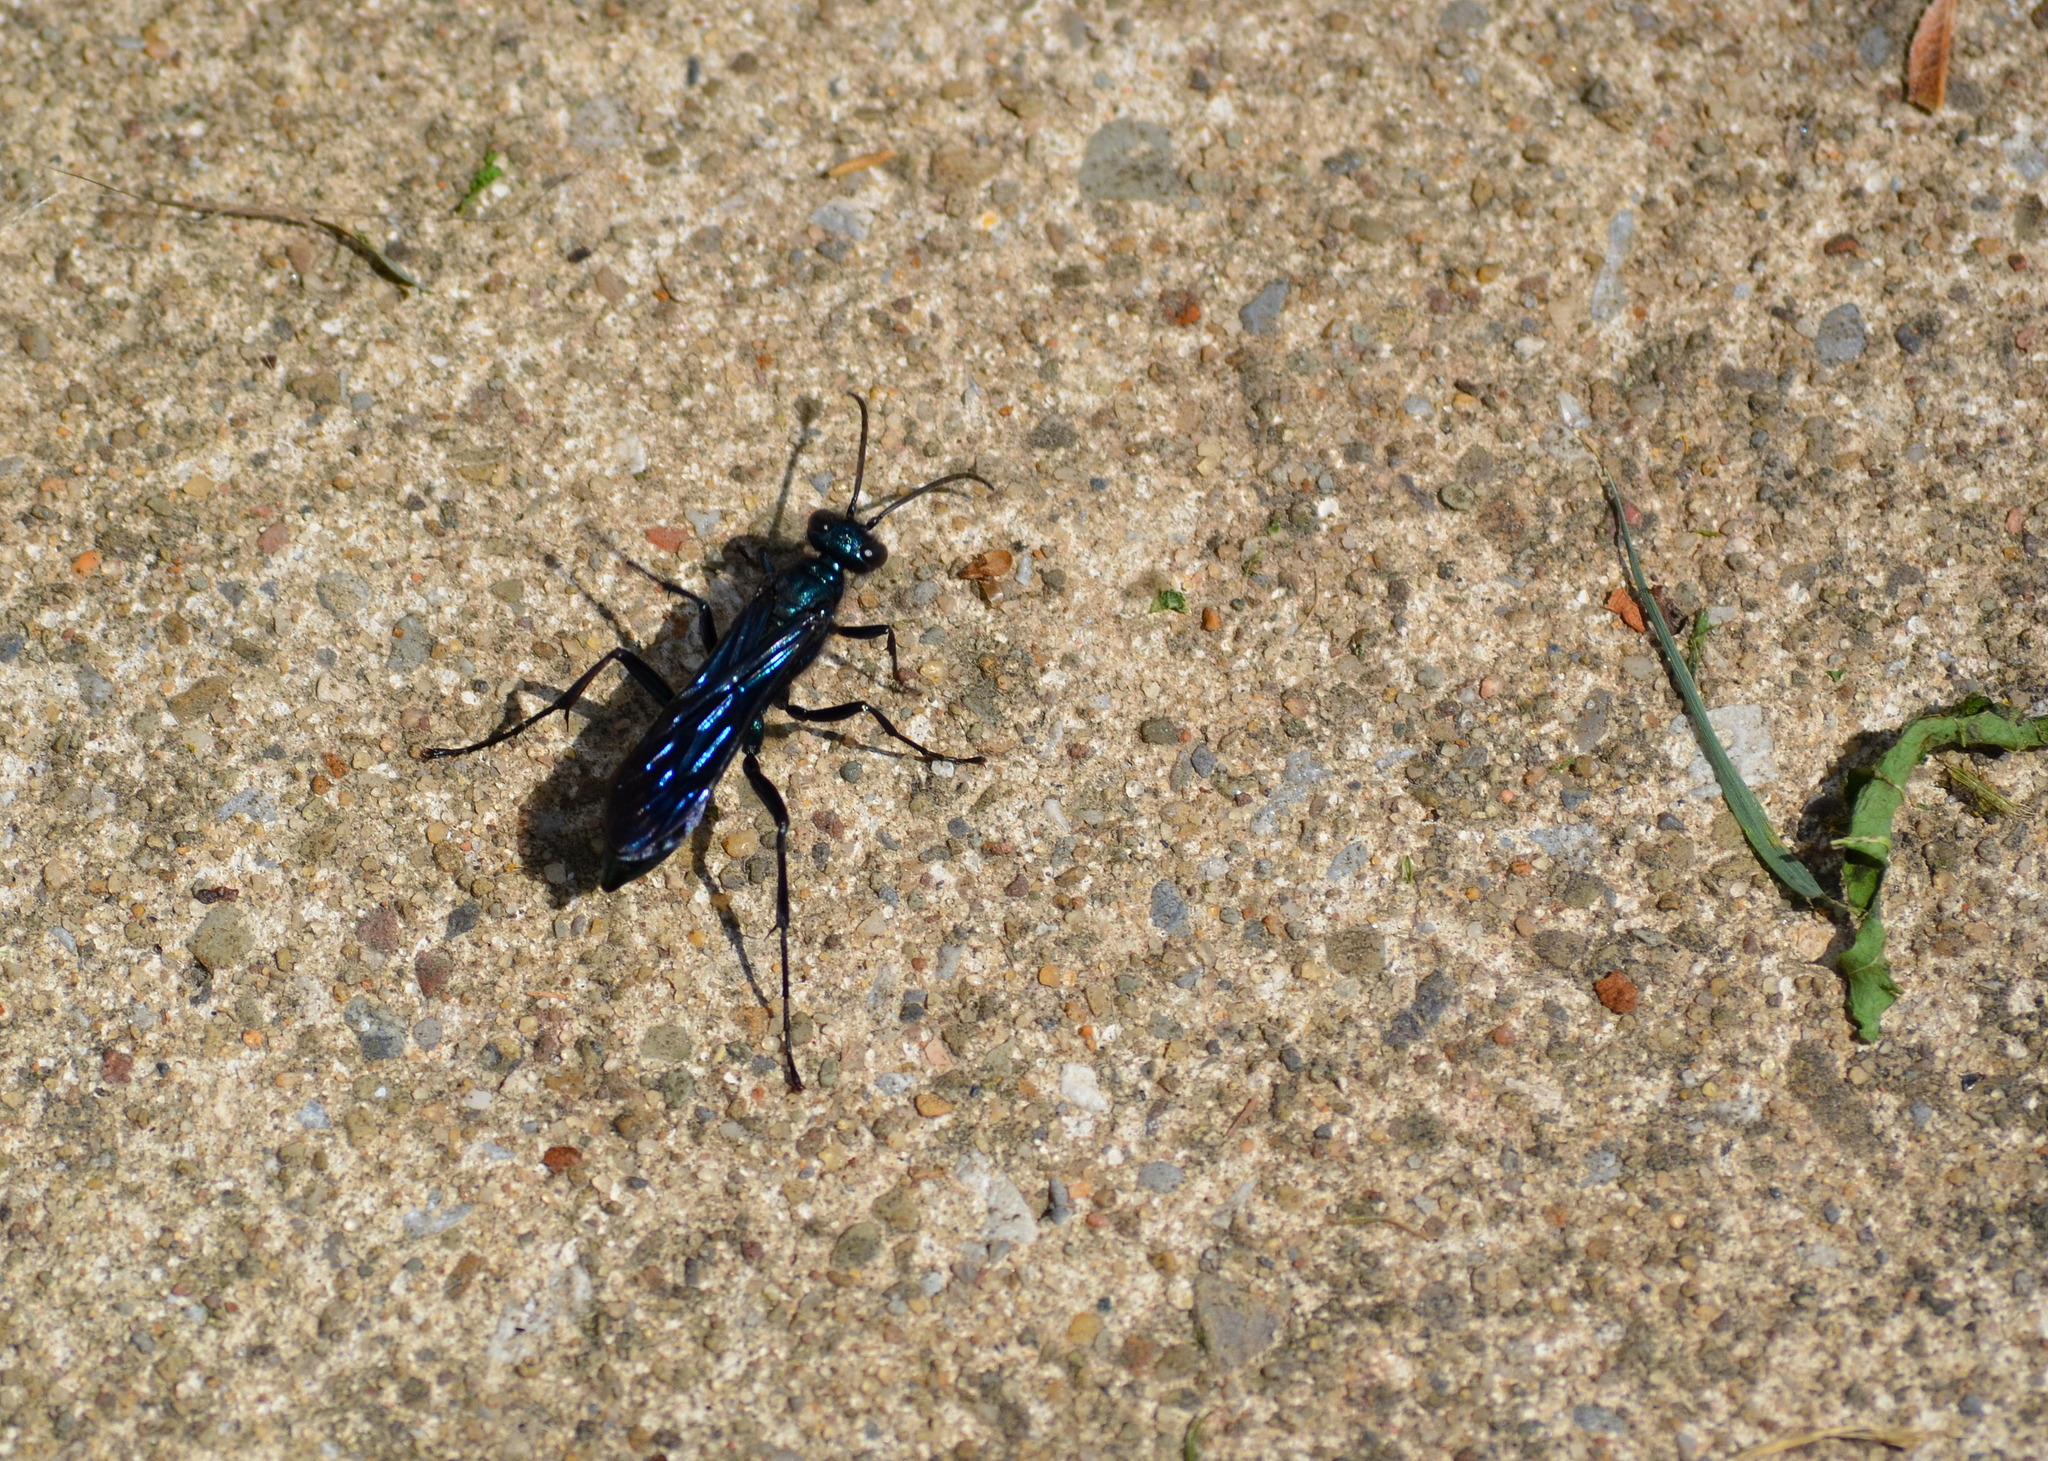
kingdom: Animalia
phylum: Arthropoda
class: Insecta
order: Hymenoptera
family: Sphecidae
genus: Chalybion
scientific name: Chalybion californicum
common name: Mud dauber
